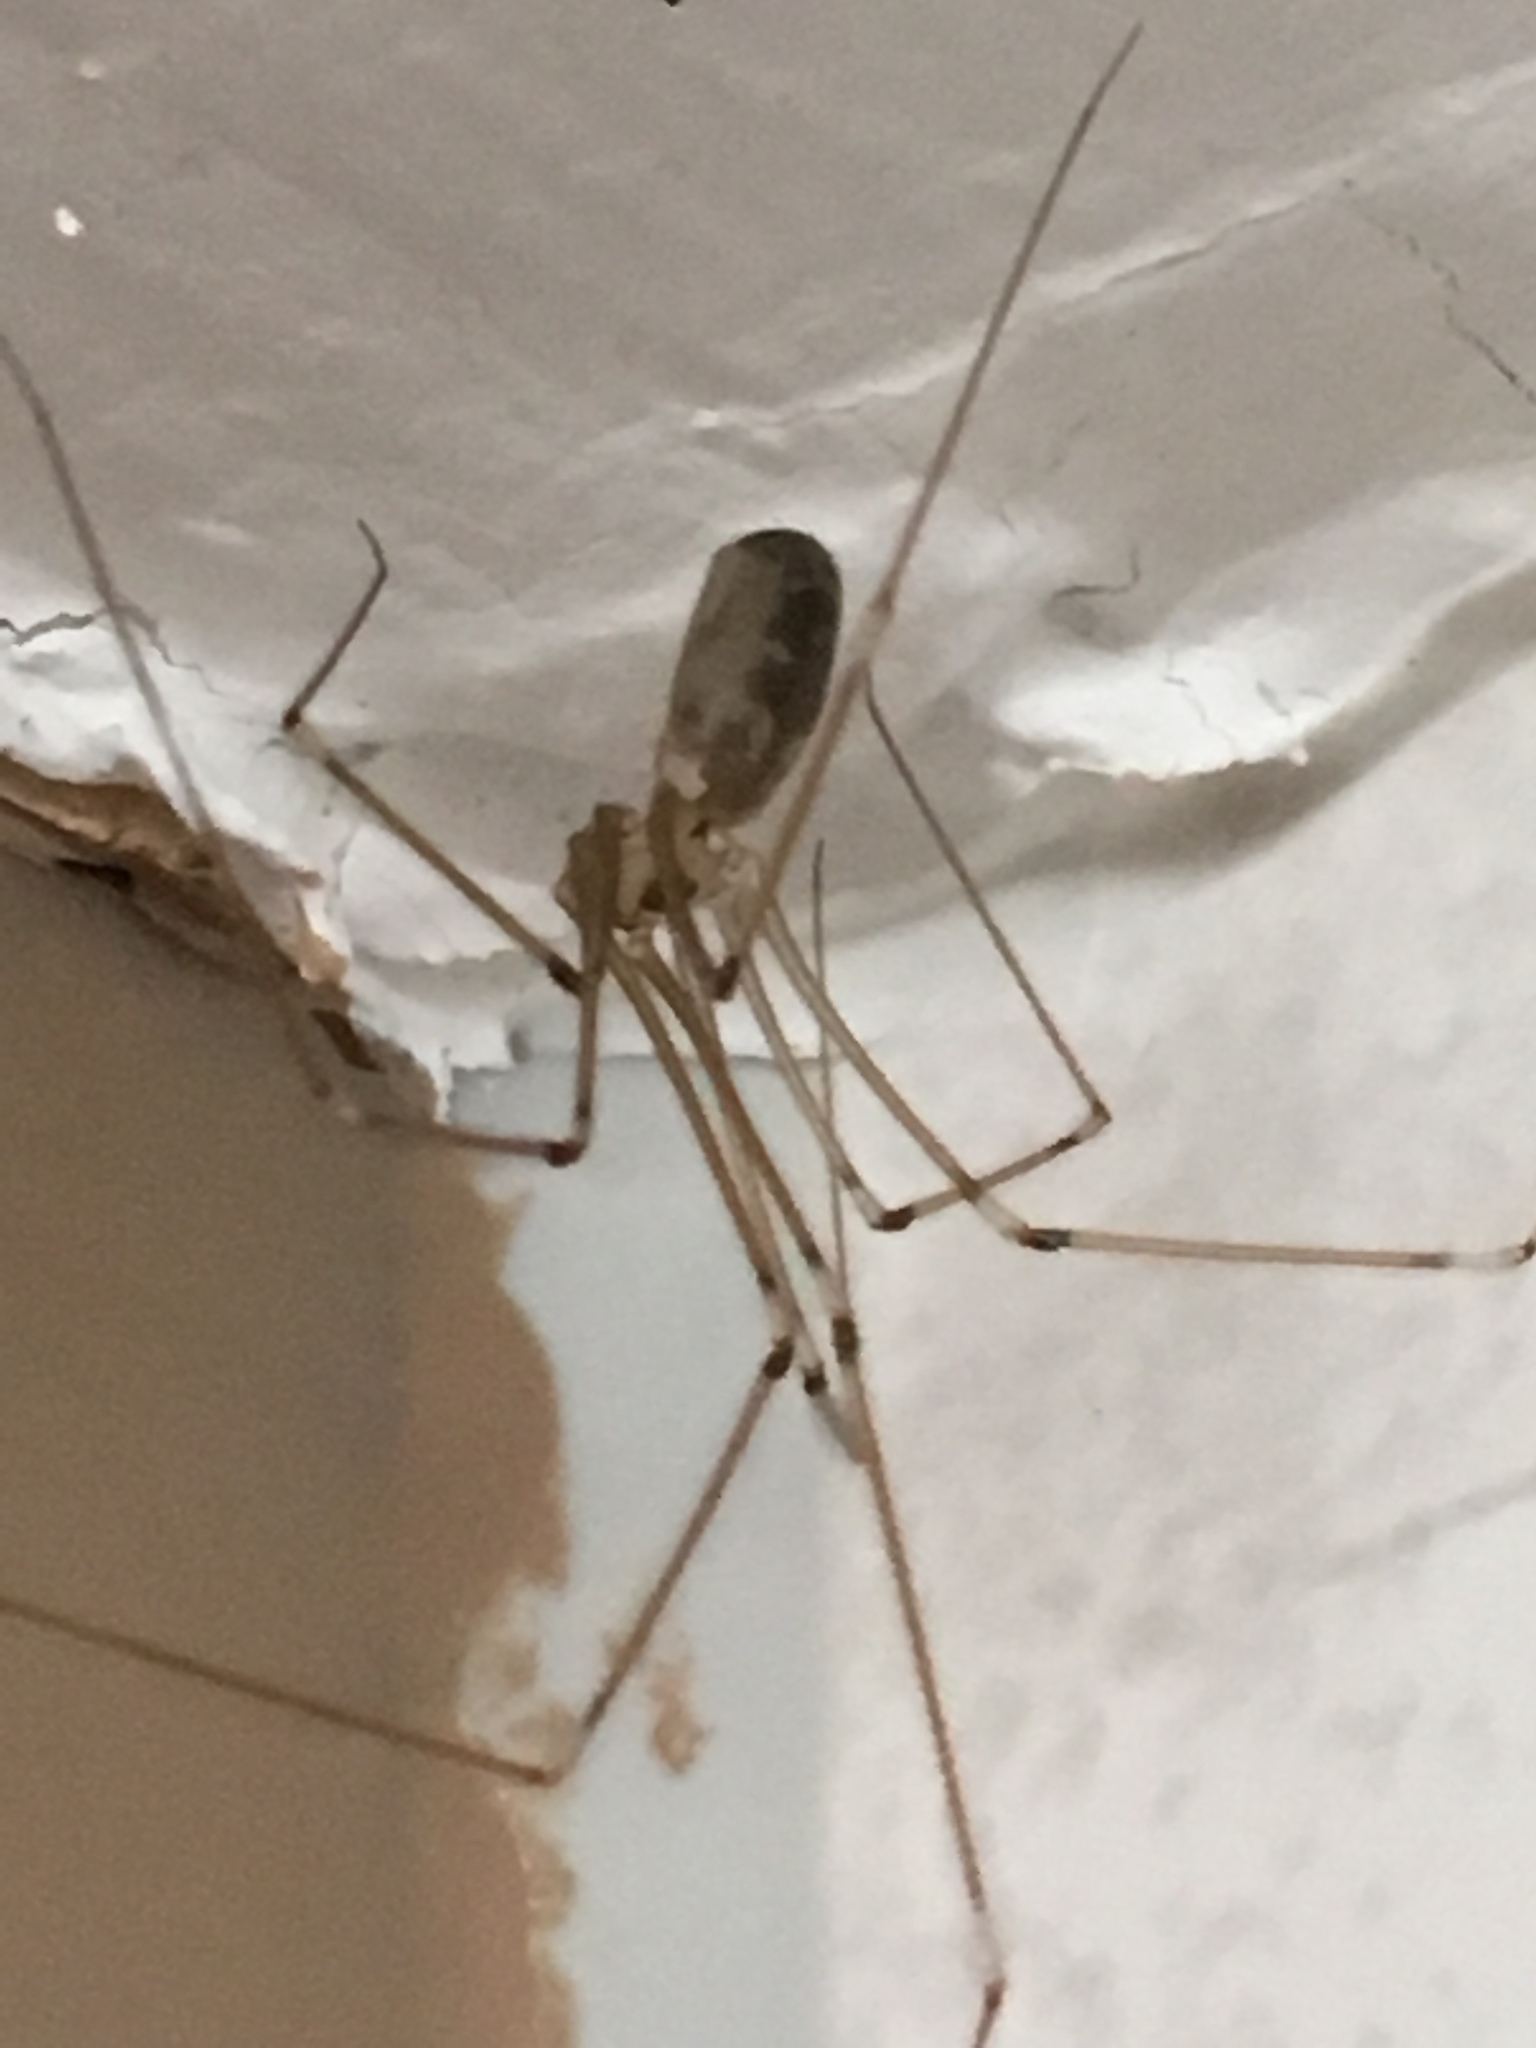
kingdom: Animalia
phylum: Arthropoda
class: Arachnida
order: Araneae
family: Pholcidae
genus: Pholcus
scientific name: Pholcus phalangioides
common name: Longbodied cellar spider
